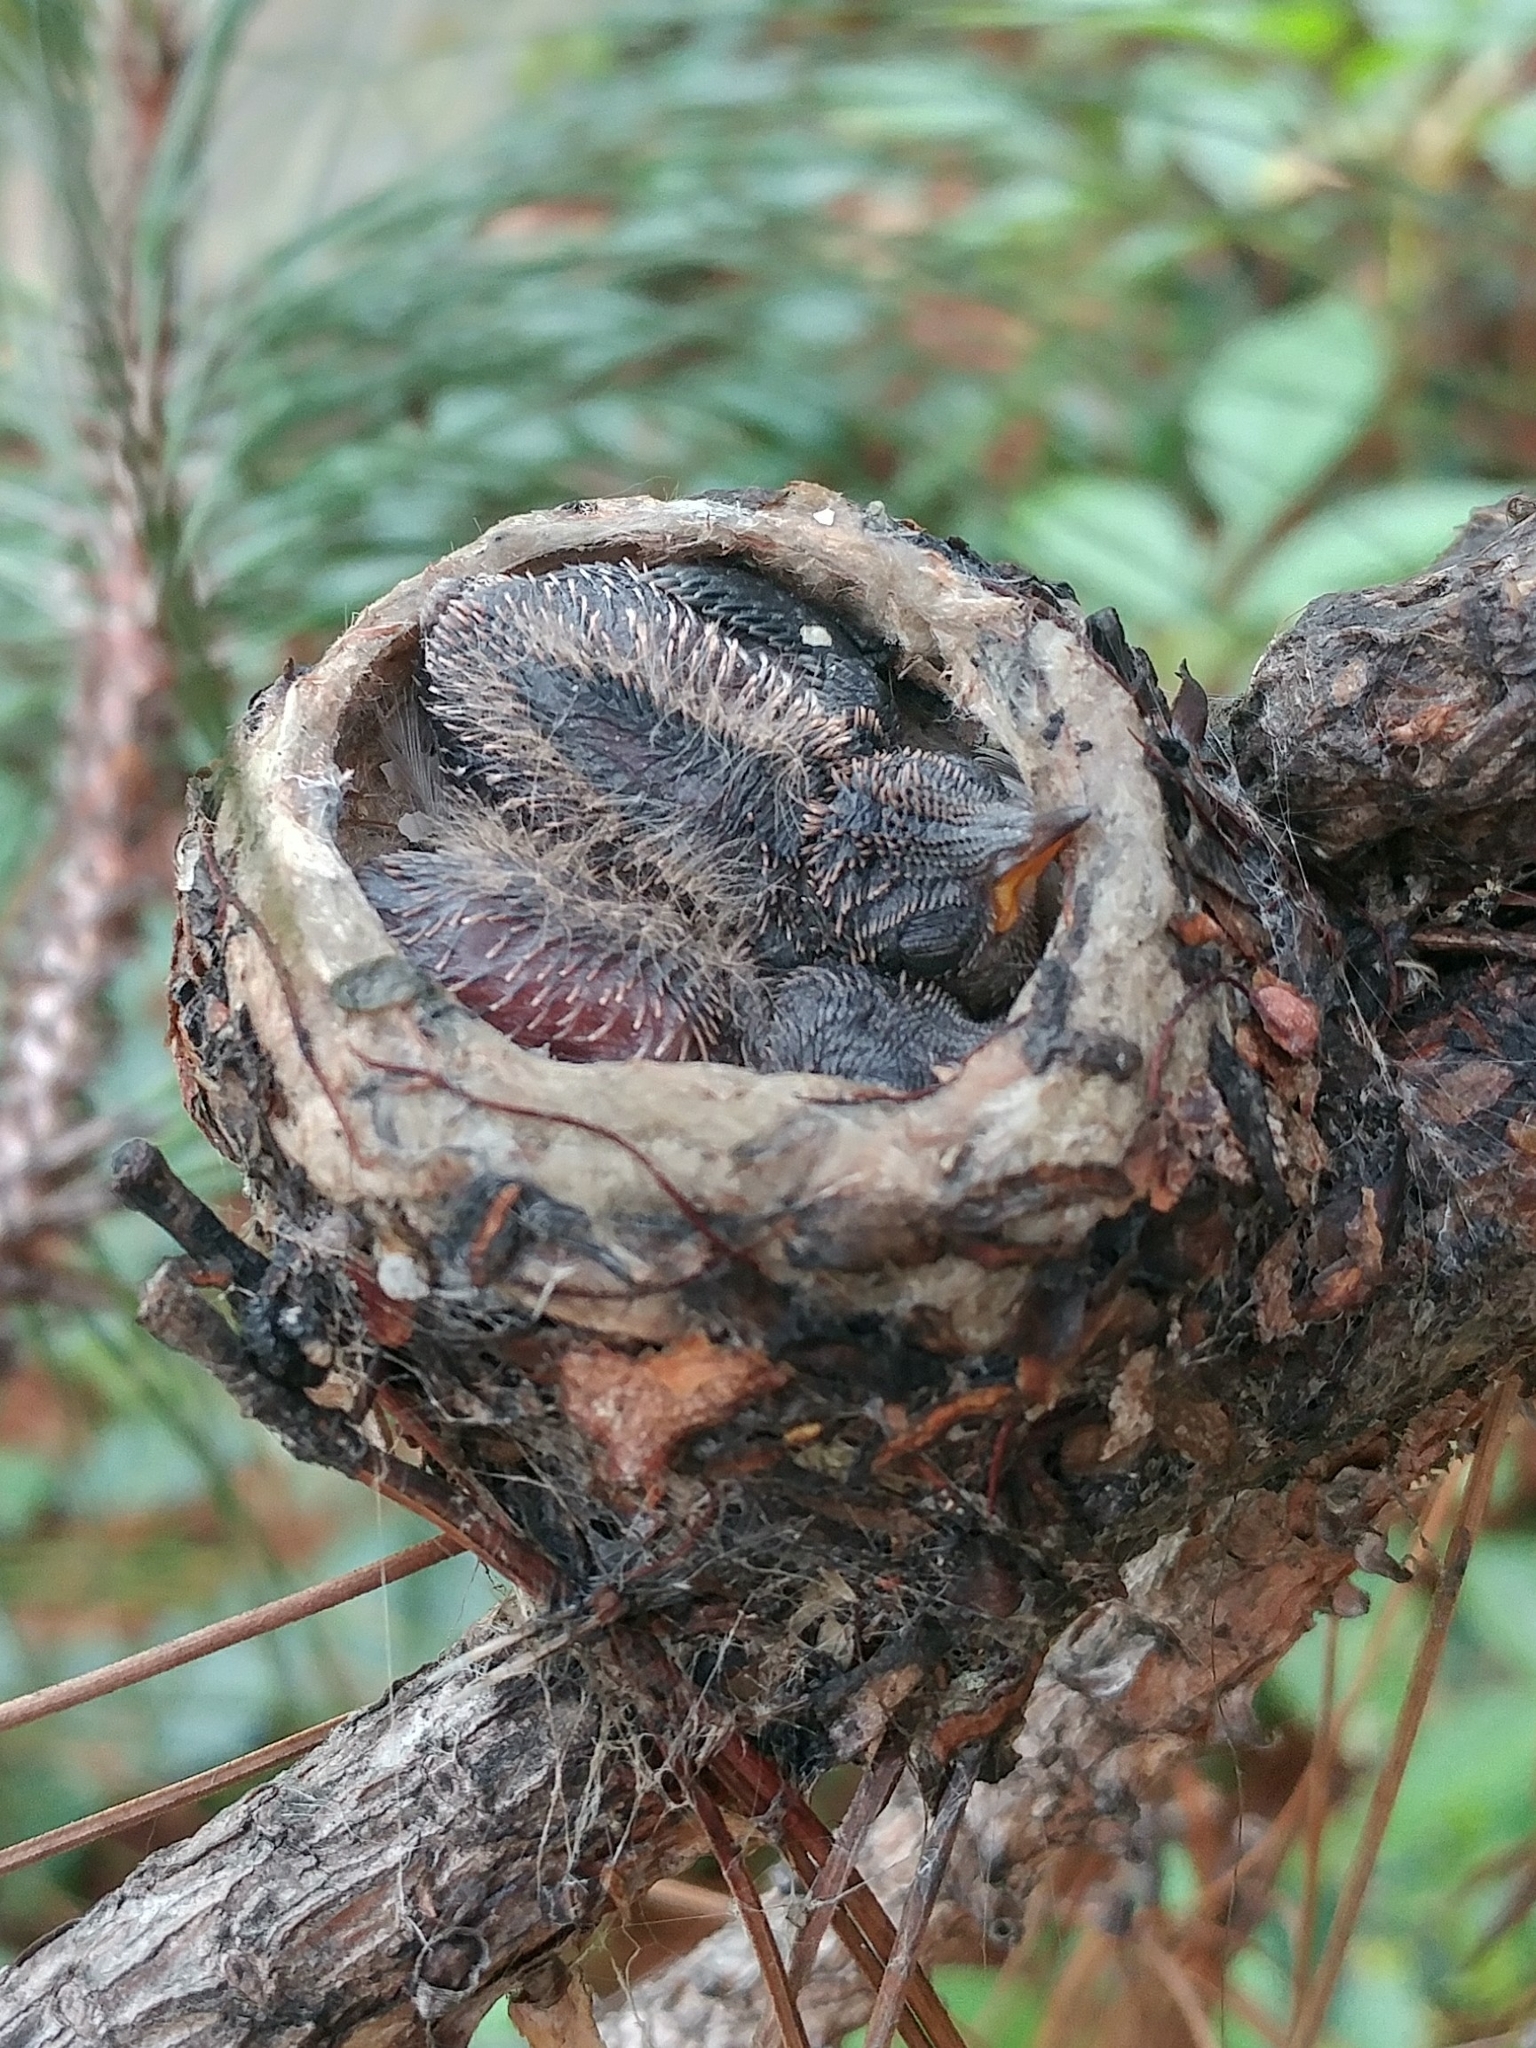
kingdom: Animalia
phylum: Chordata
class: Aves
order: Apodiformes
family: Trochilidae
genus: Calypte
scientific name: Calypte anna
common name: Anna's hummingbird
